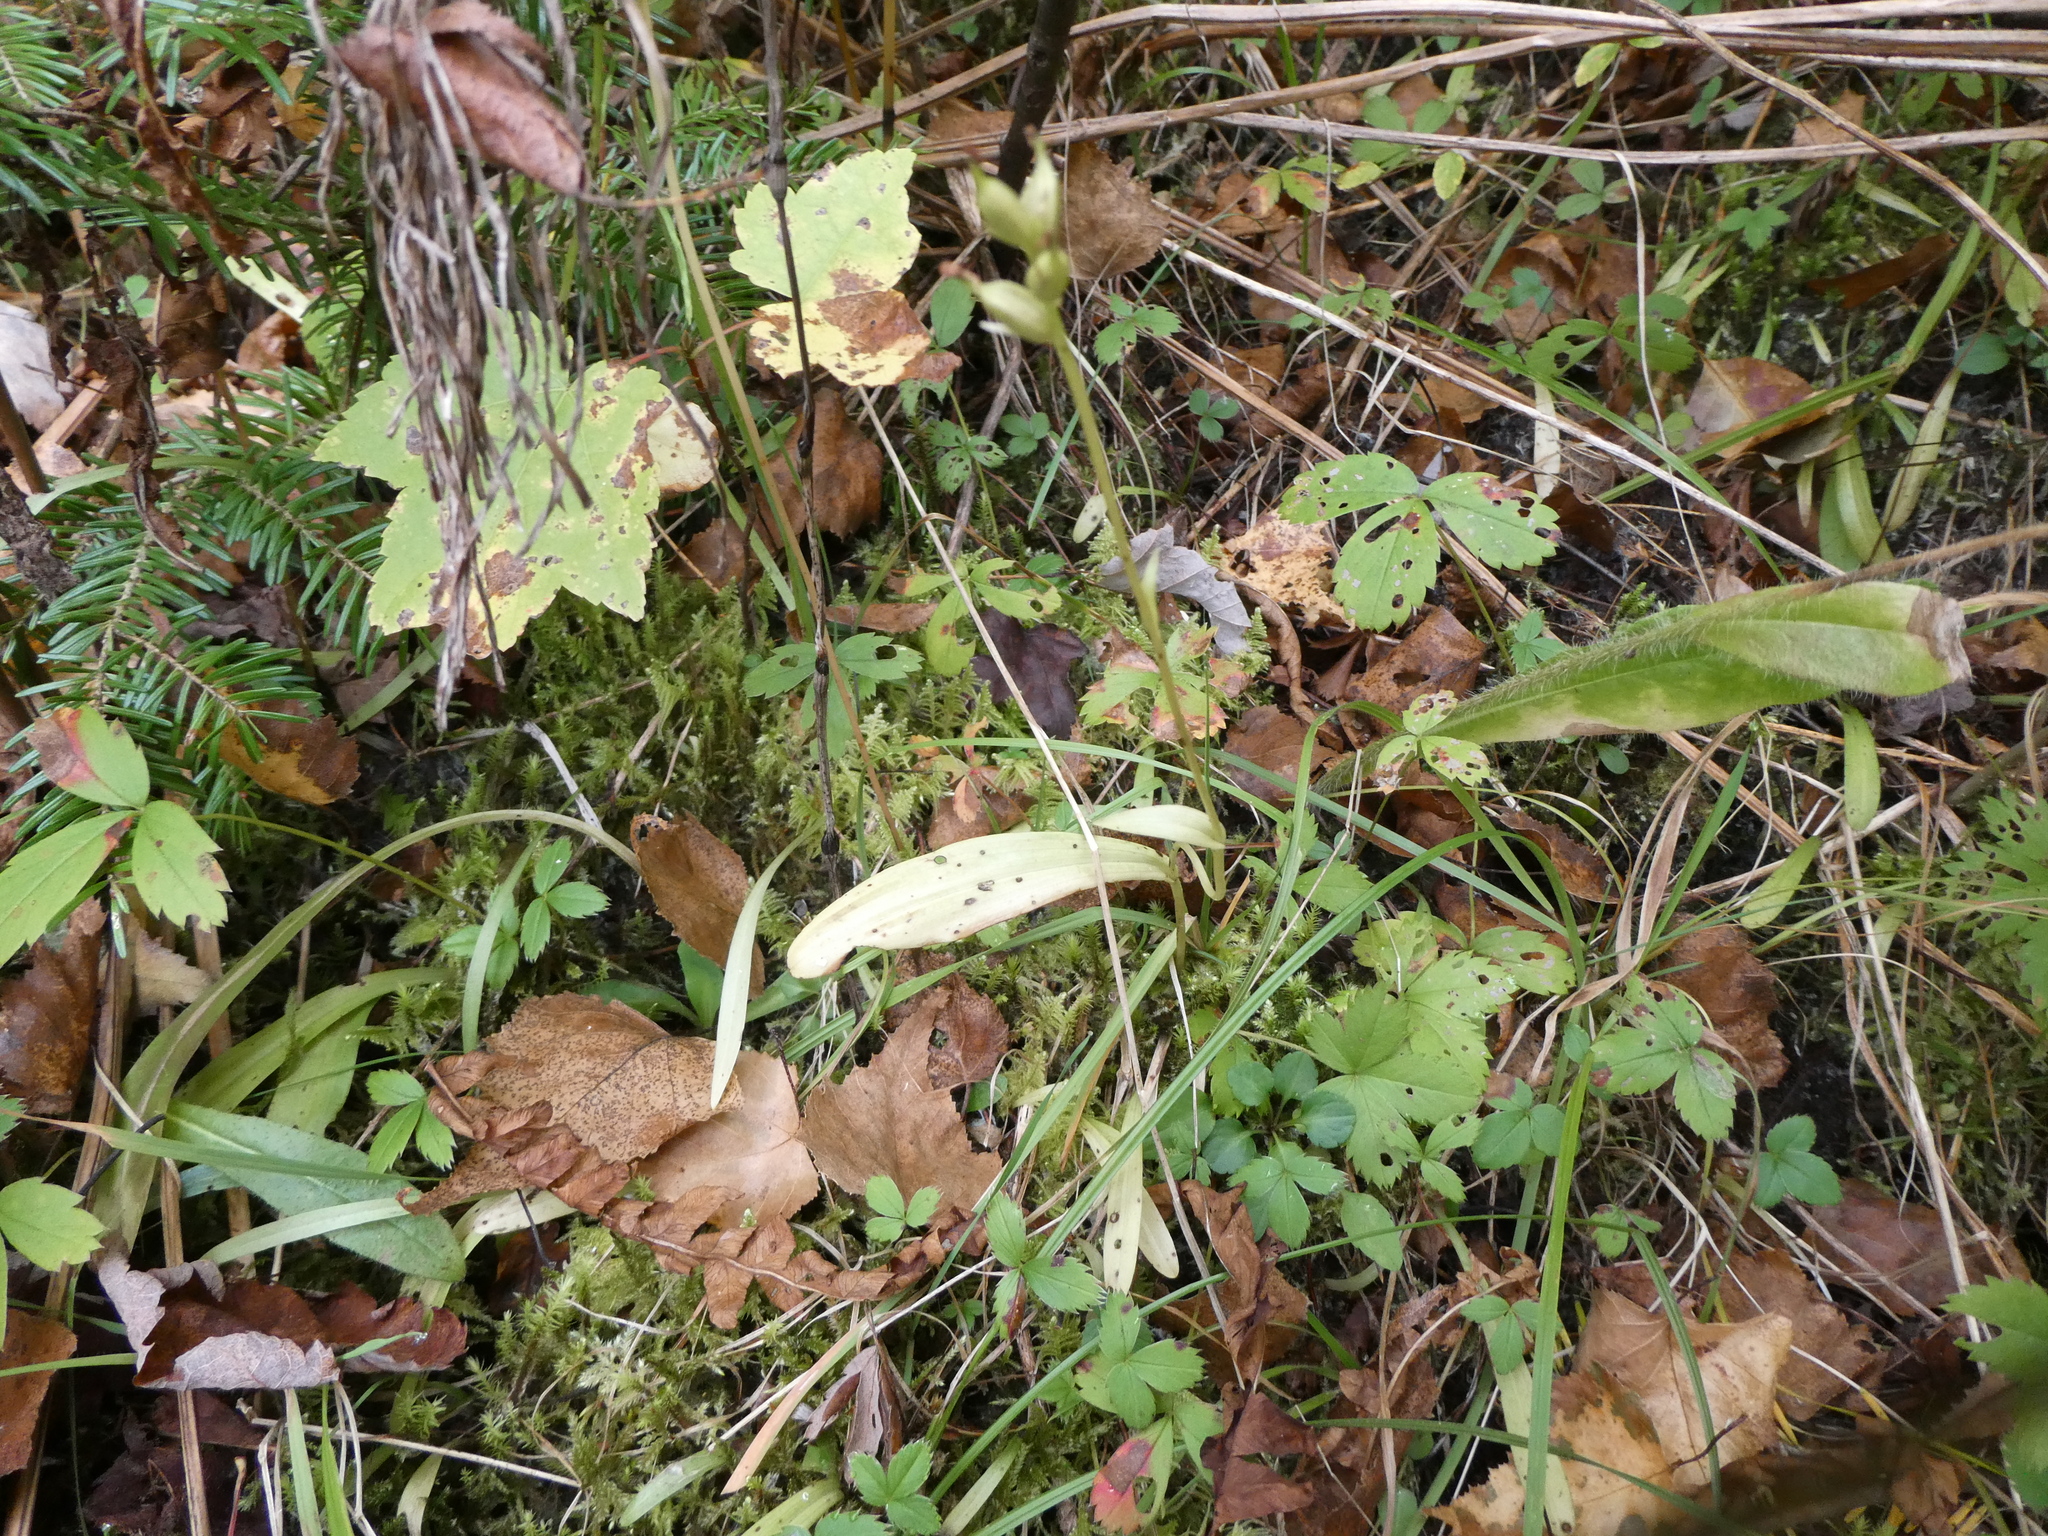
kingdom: Plantae
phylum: Tracheophyta
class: Liliopsida
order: Asparagales
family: Orchidaceae
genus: Platanthera
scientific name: Platanthera clavellata
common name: Club-spur orchid
